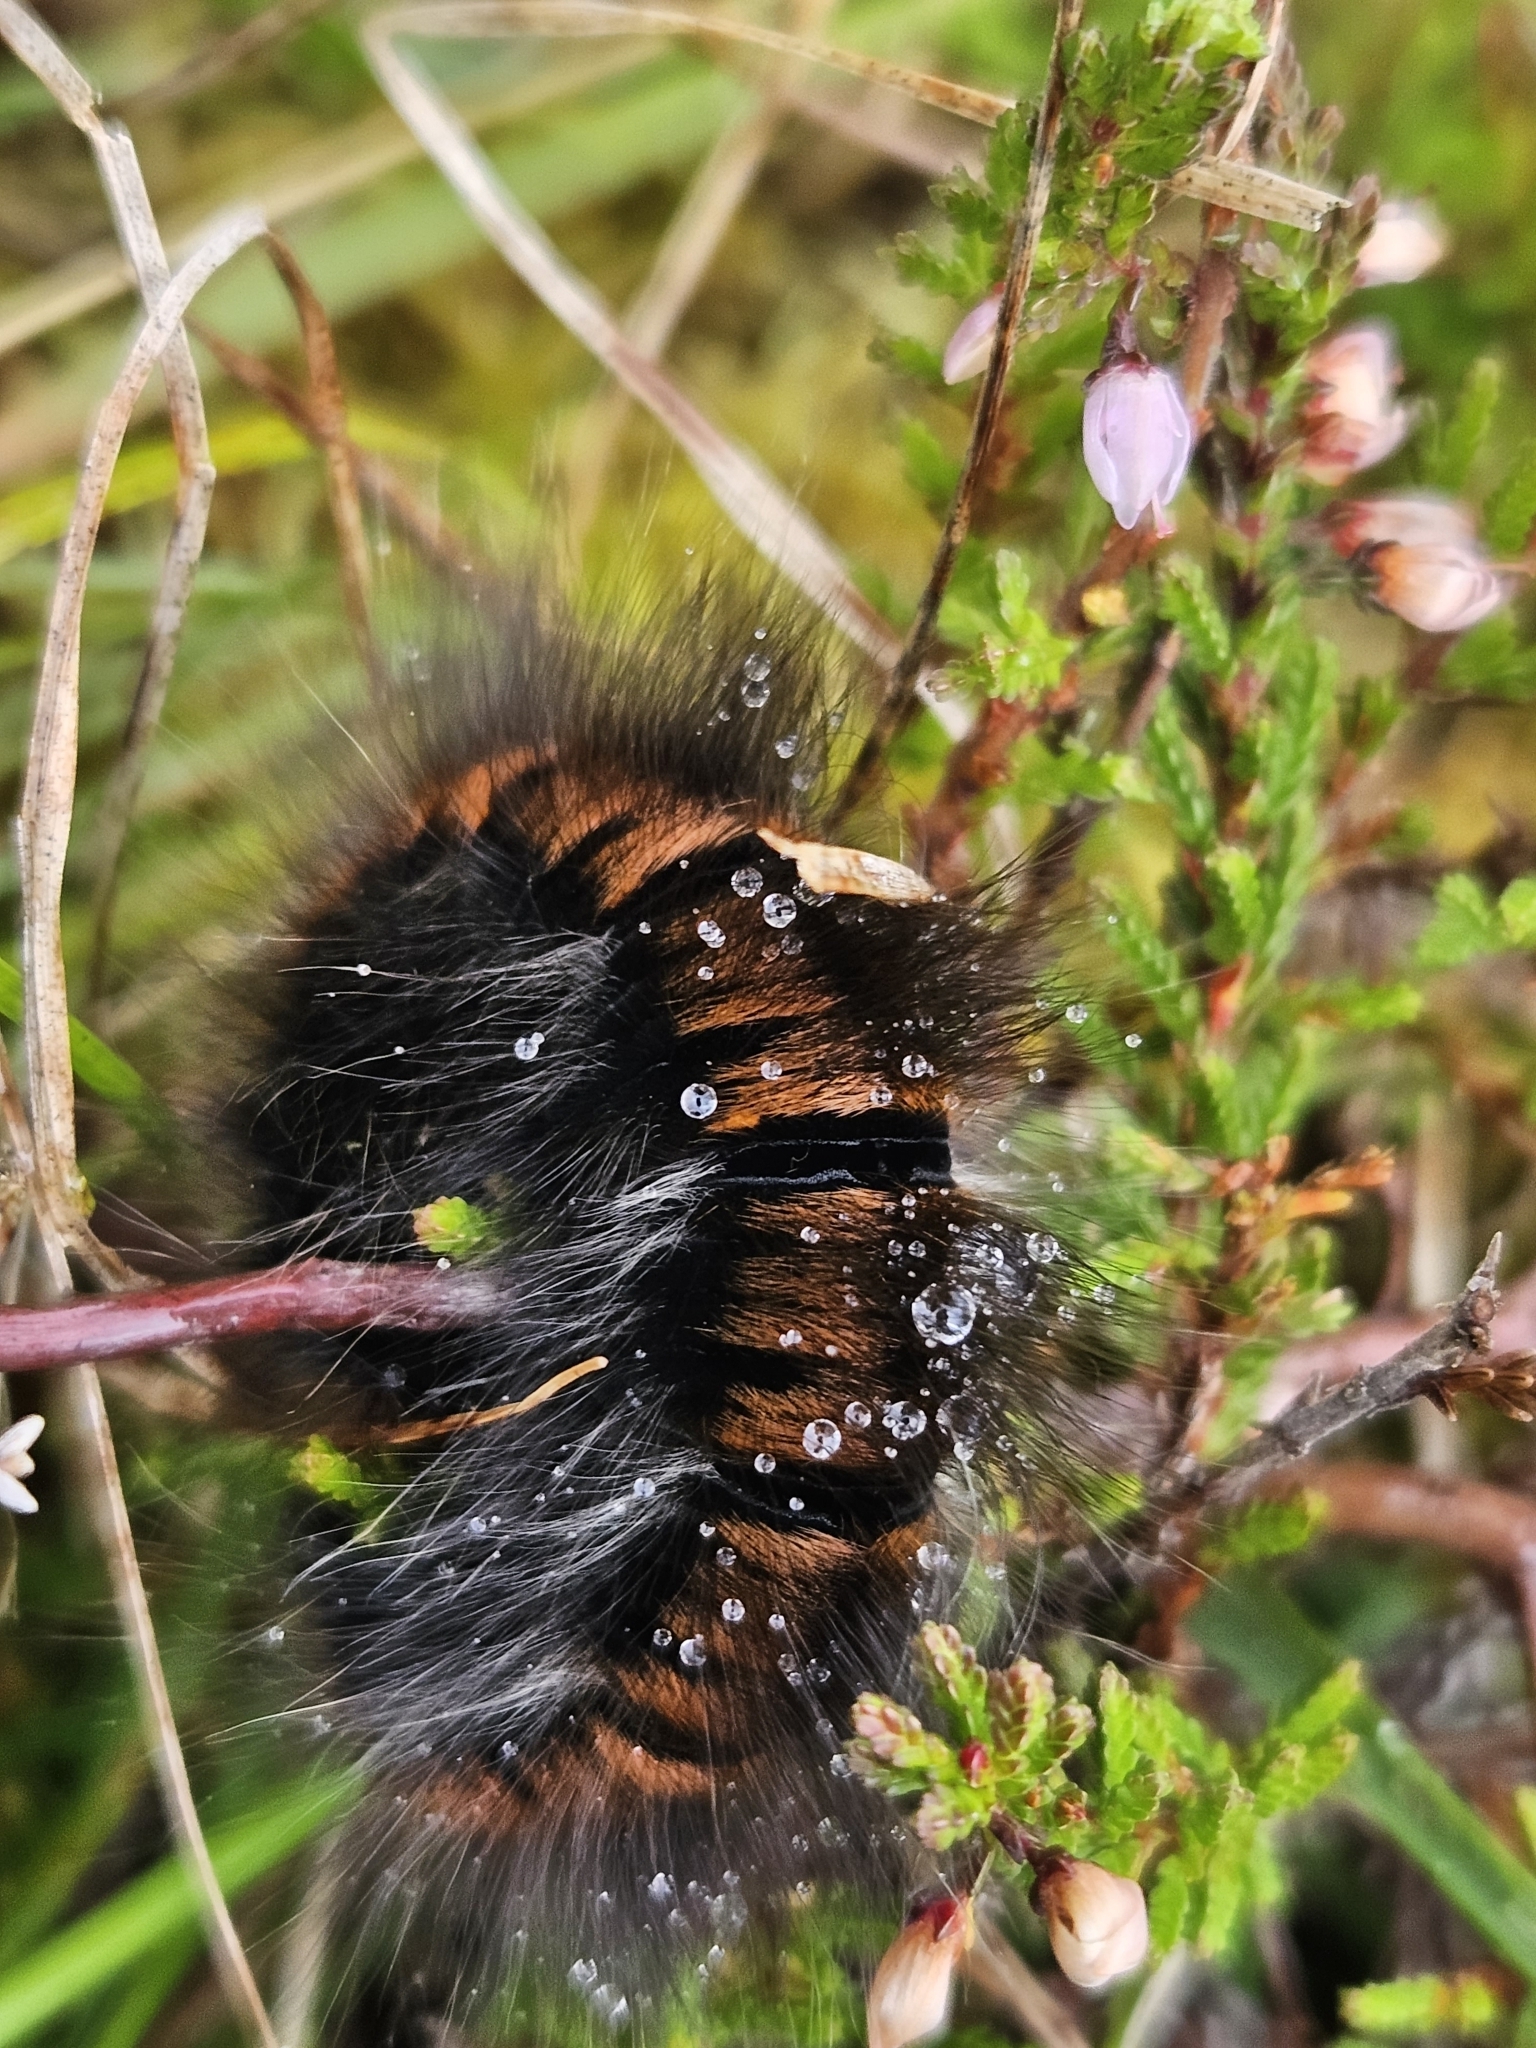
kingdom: Animalia
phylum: Arthropoda
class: Insecta
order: Lepidoptera
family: Lasiocampidae
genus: Macrothylacia
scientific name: Macrothylacia rubi
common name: Fox moth
